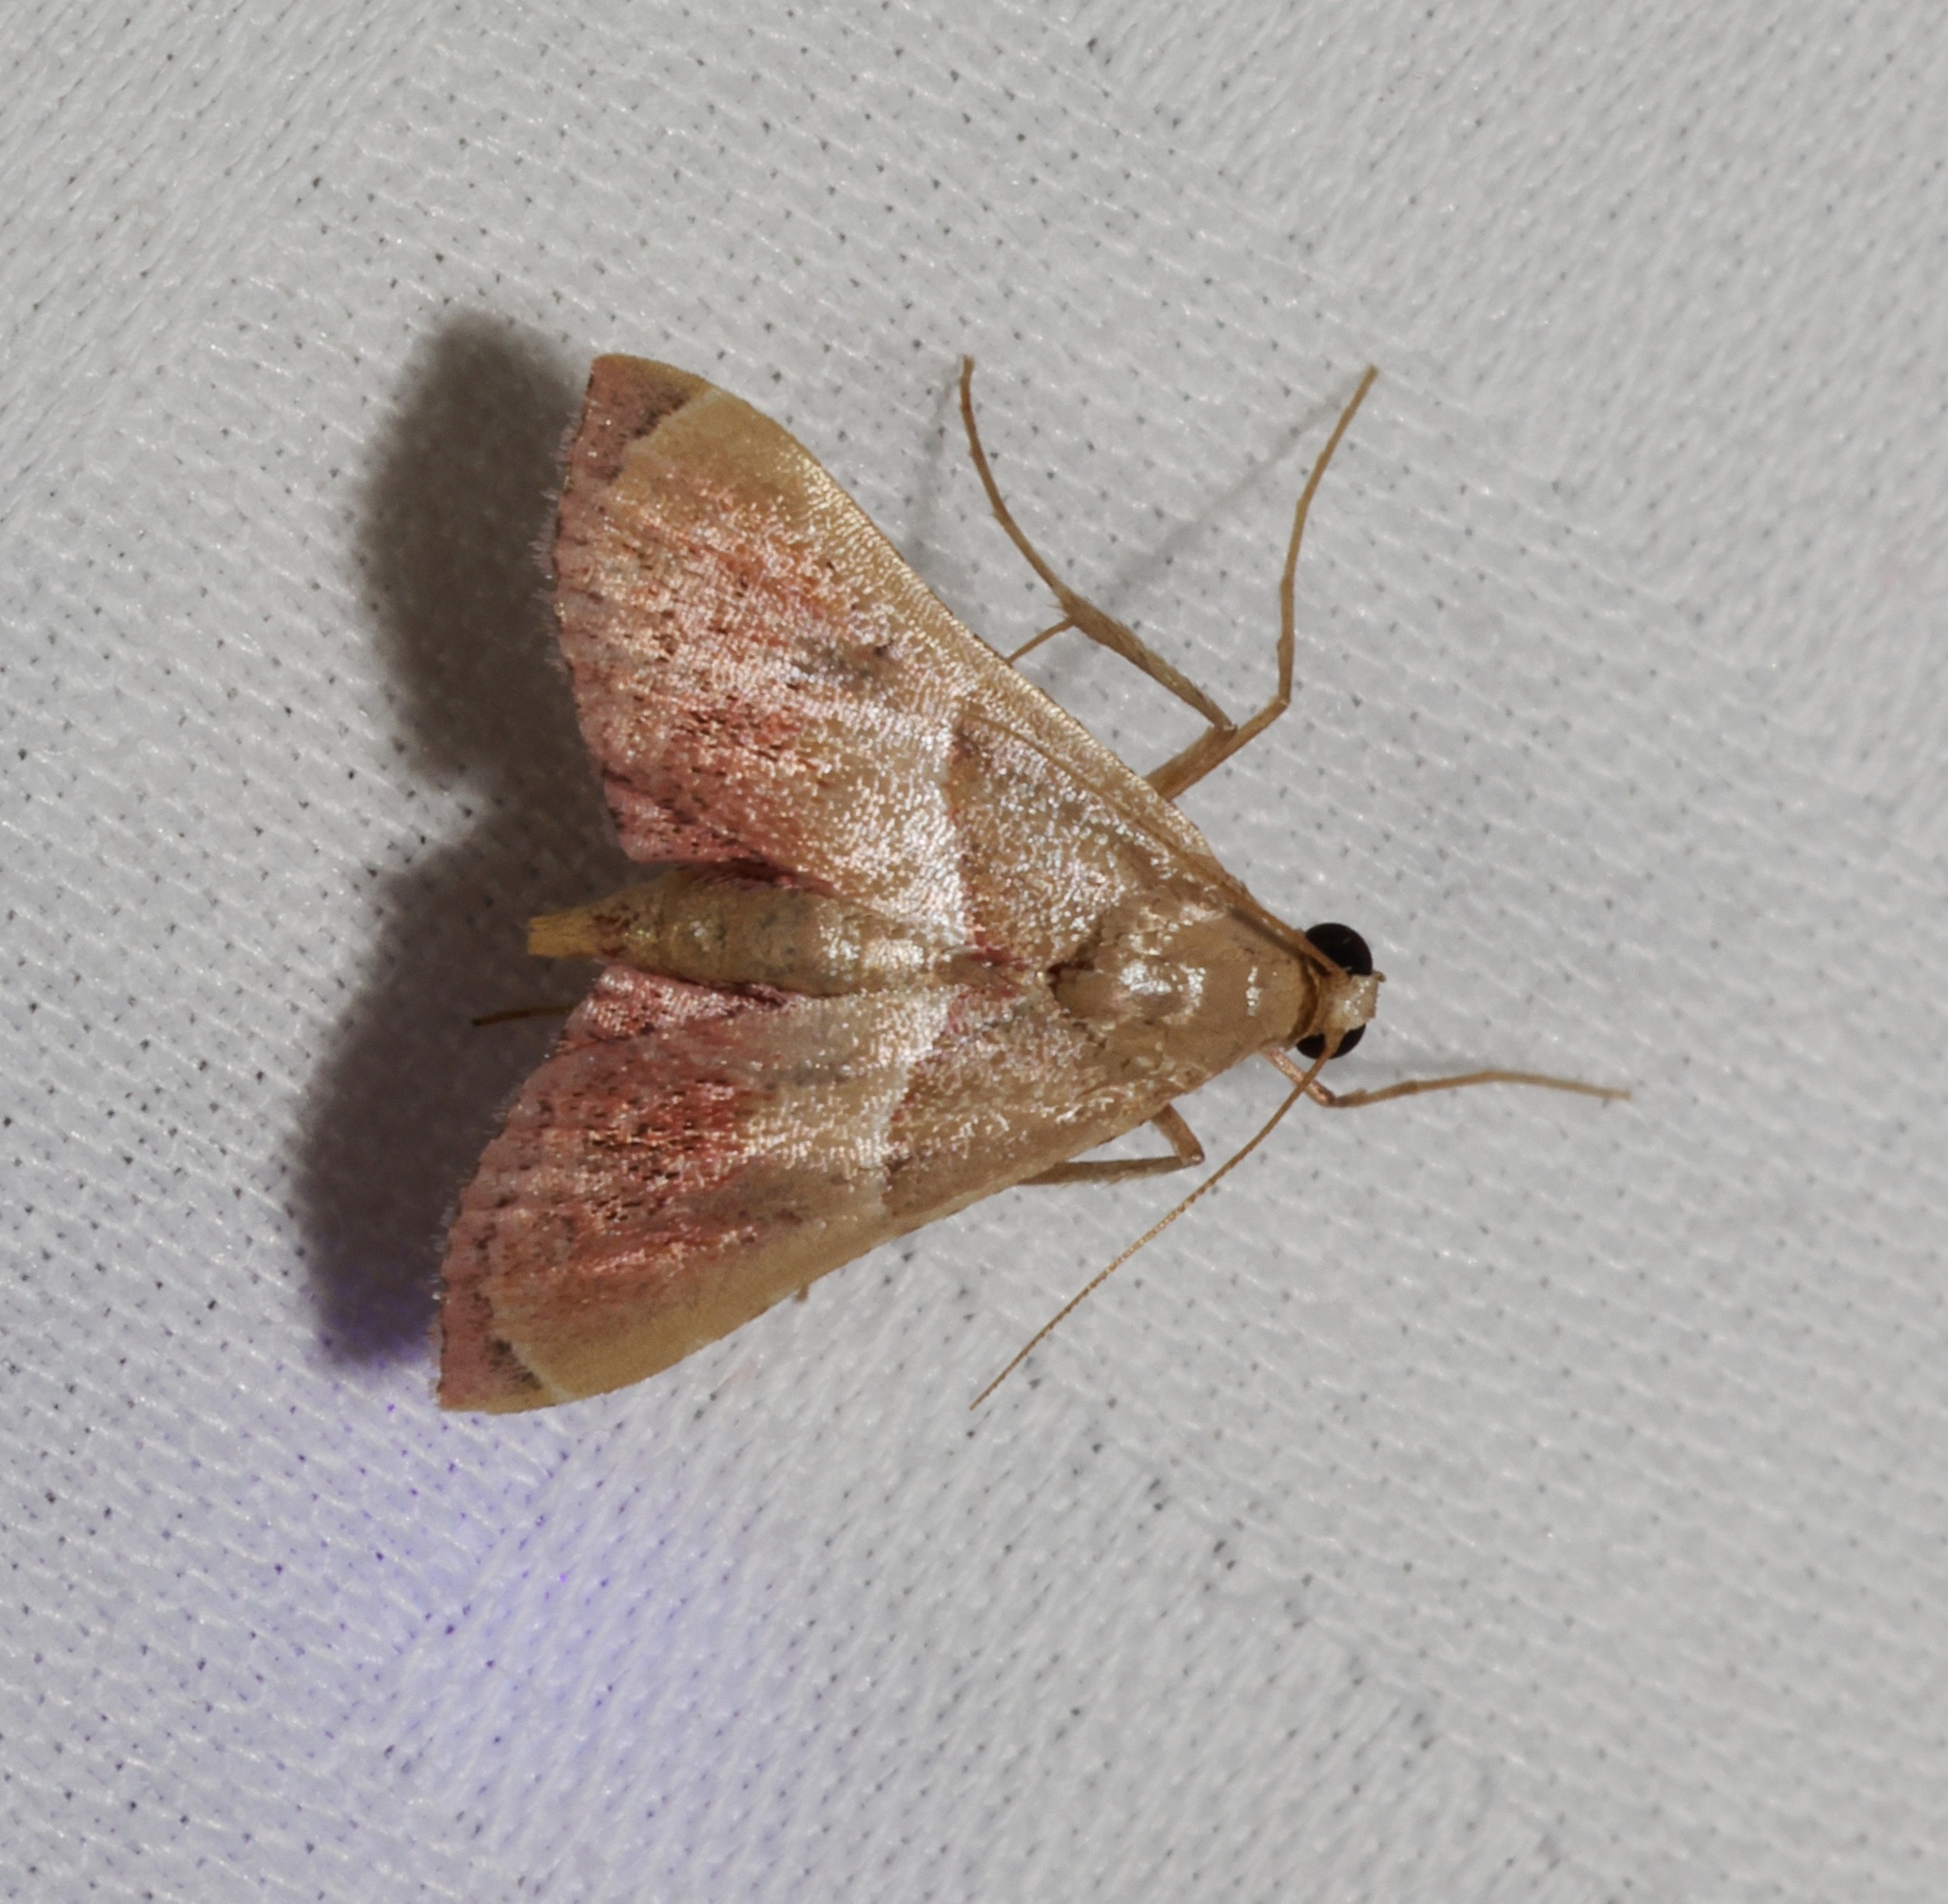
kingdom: Animalia
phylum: Arthropoda
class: Insecta
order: Lepidoptera
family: Pyralidae
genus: Endotricha
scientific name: Endotricha repandalis
